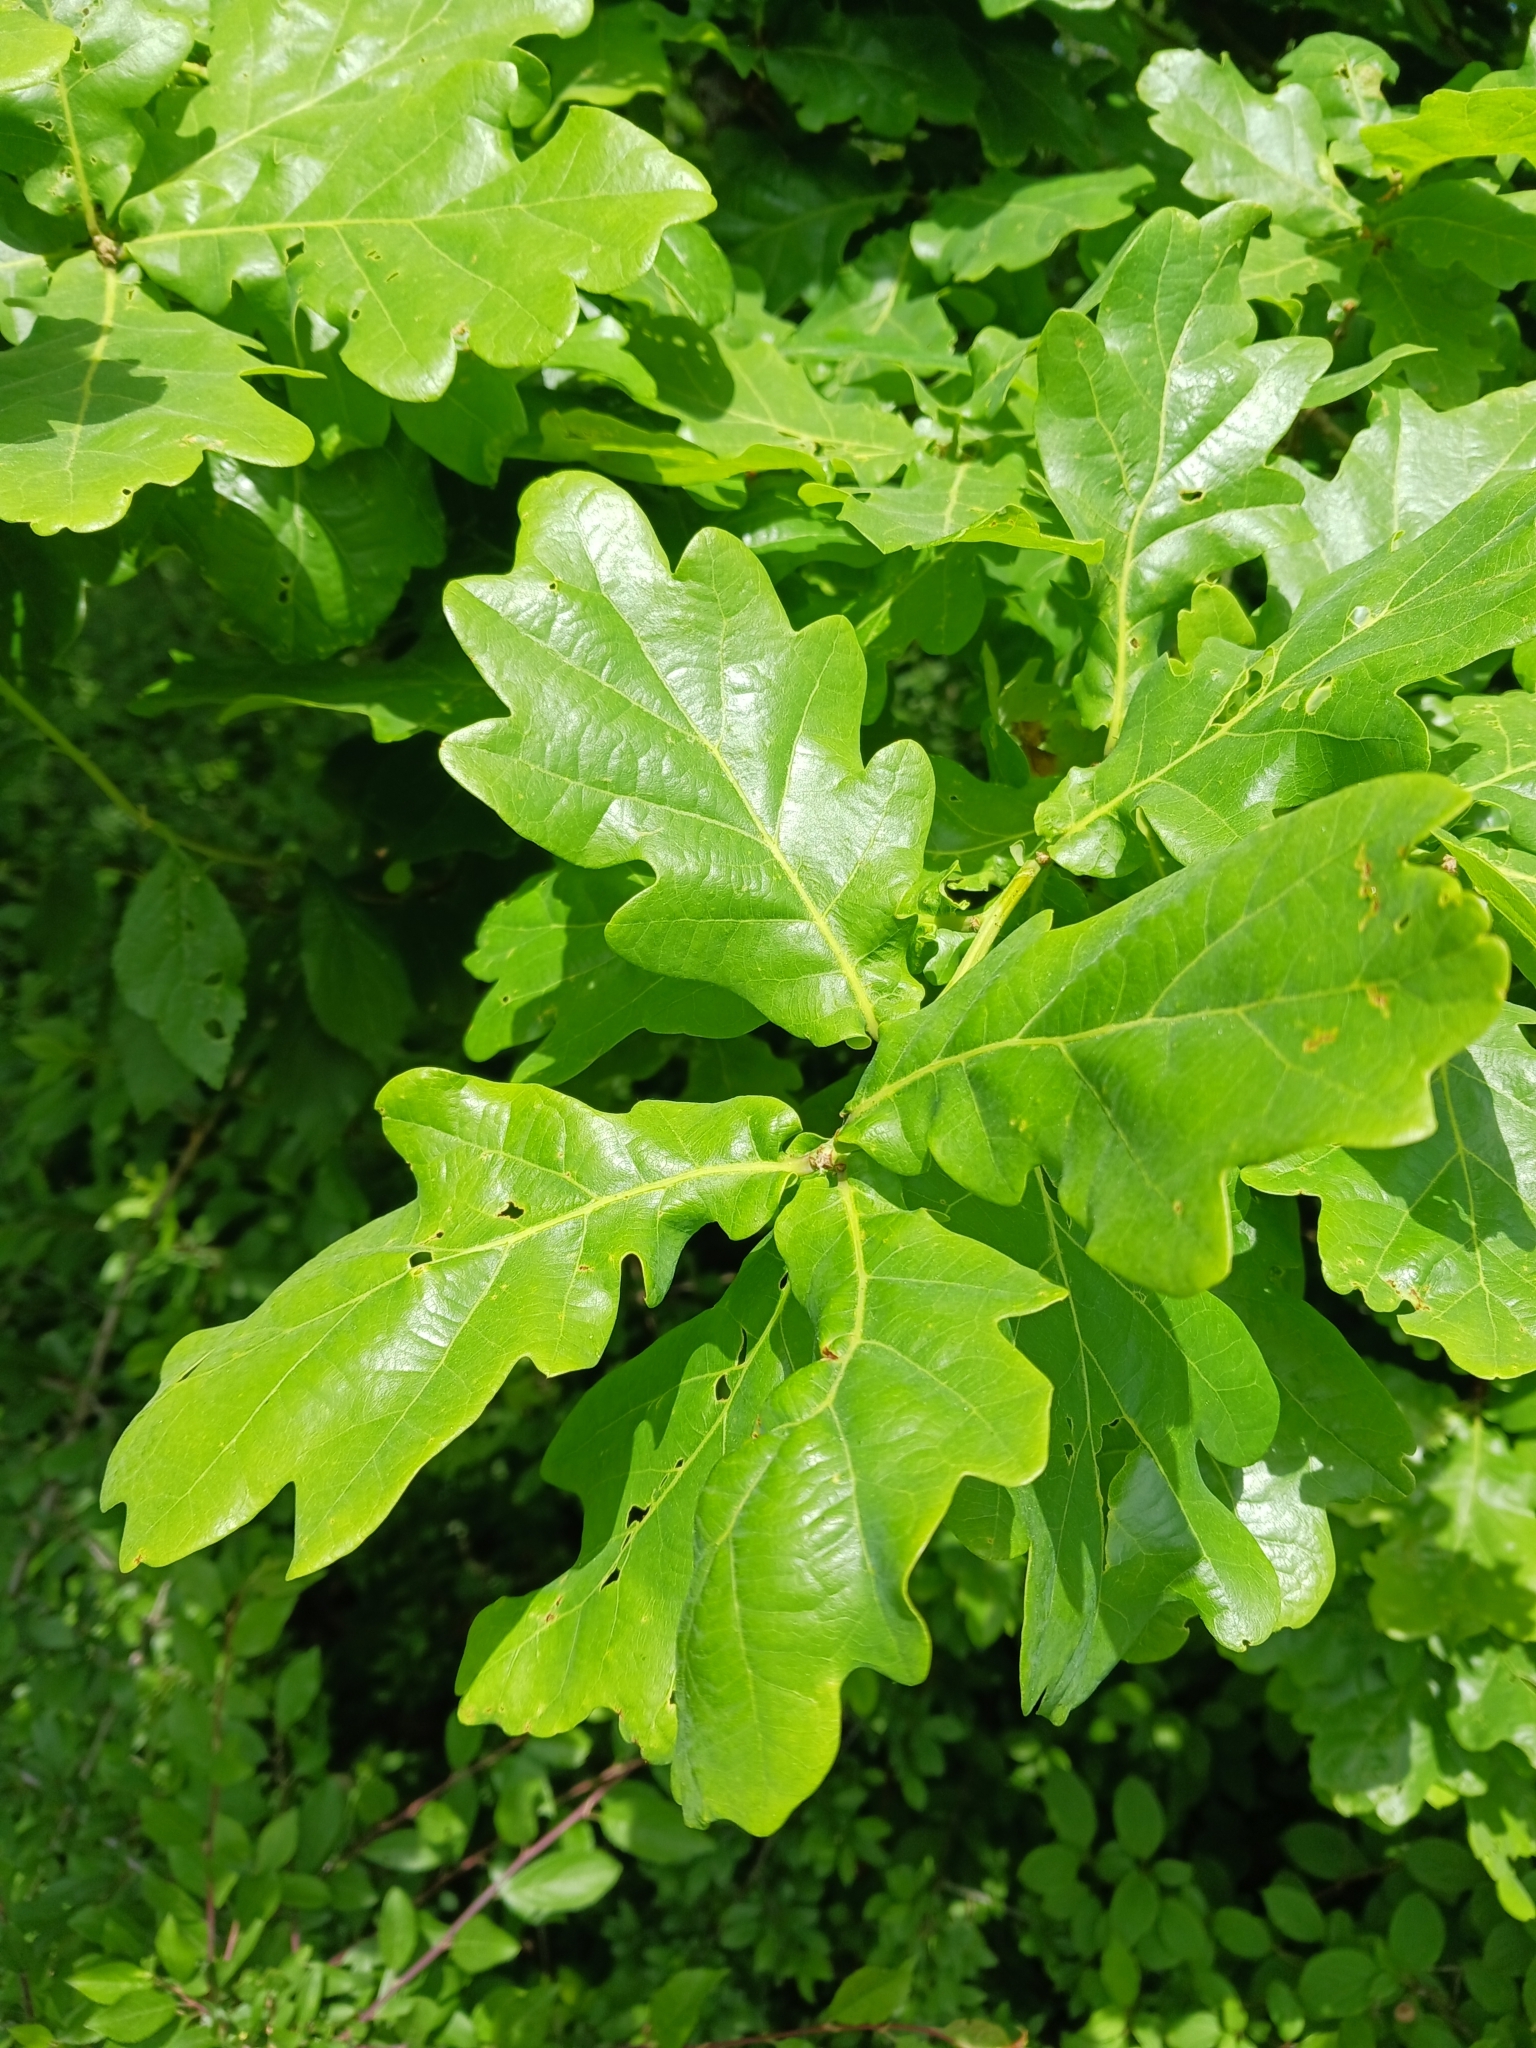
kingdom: Plantae
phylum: Tracheophyta
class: Magnoliopsida
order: Fagales
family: Fagaceae
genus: Quercus
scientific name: Quercus robur
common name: Pedunculate oak
